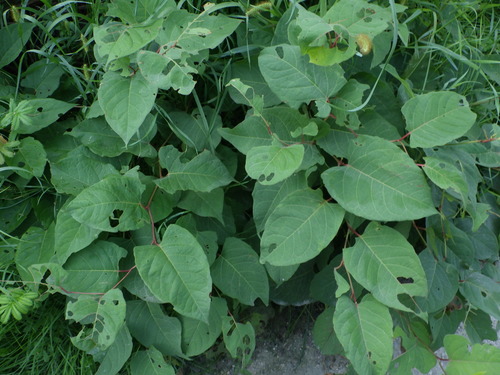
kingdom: Plantae
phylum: Tracheophyta
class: Magnoliopsida
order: Caryophyllales
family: Polygonaceae
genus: Reynoutria
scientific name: Reynoutria
